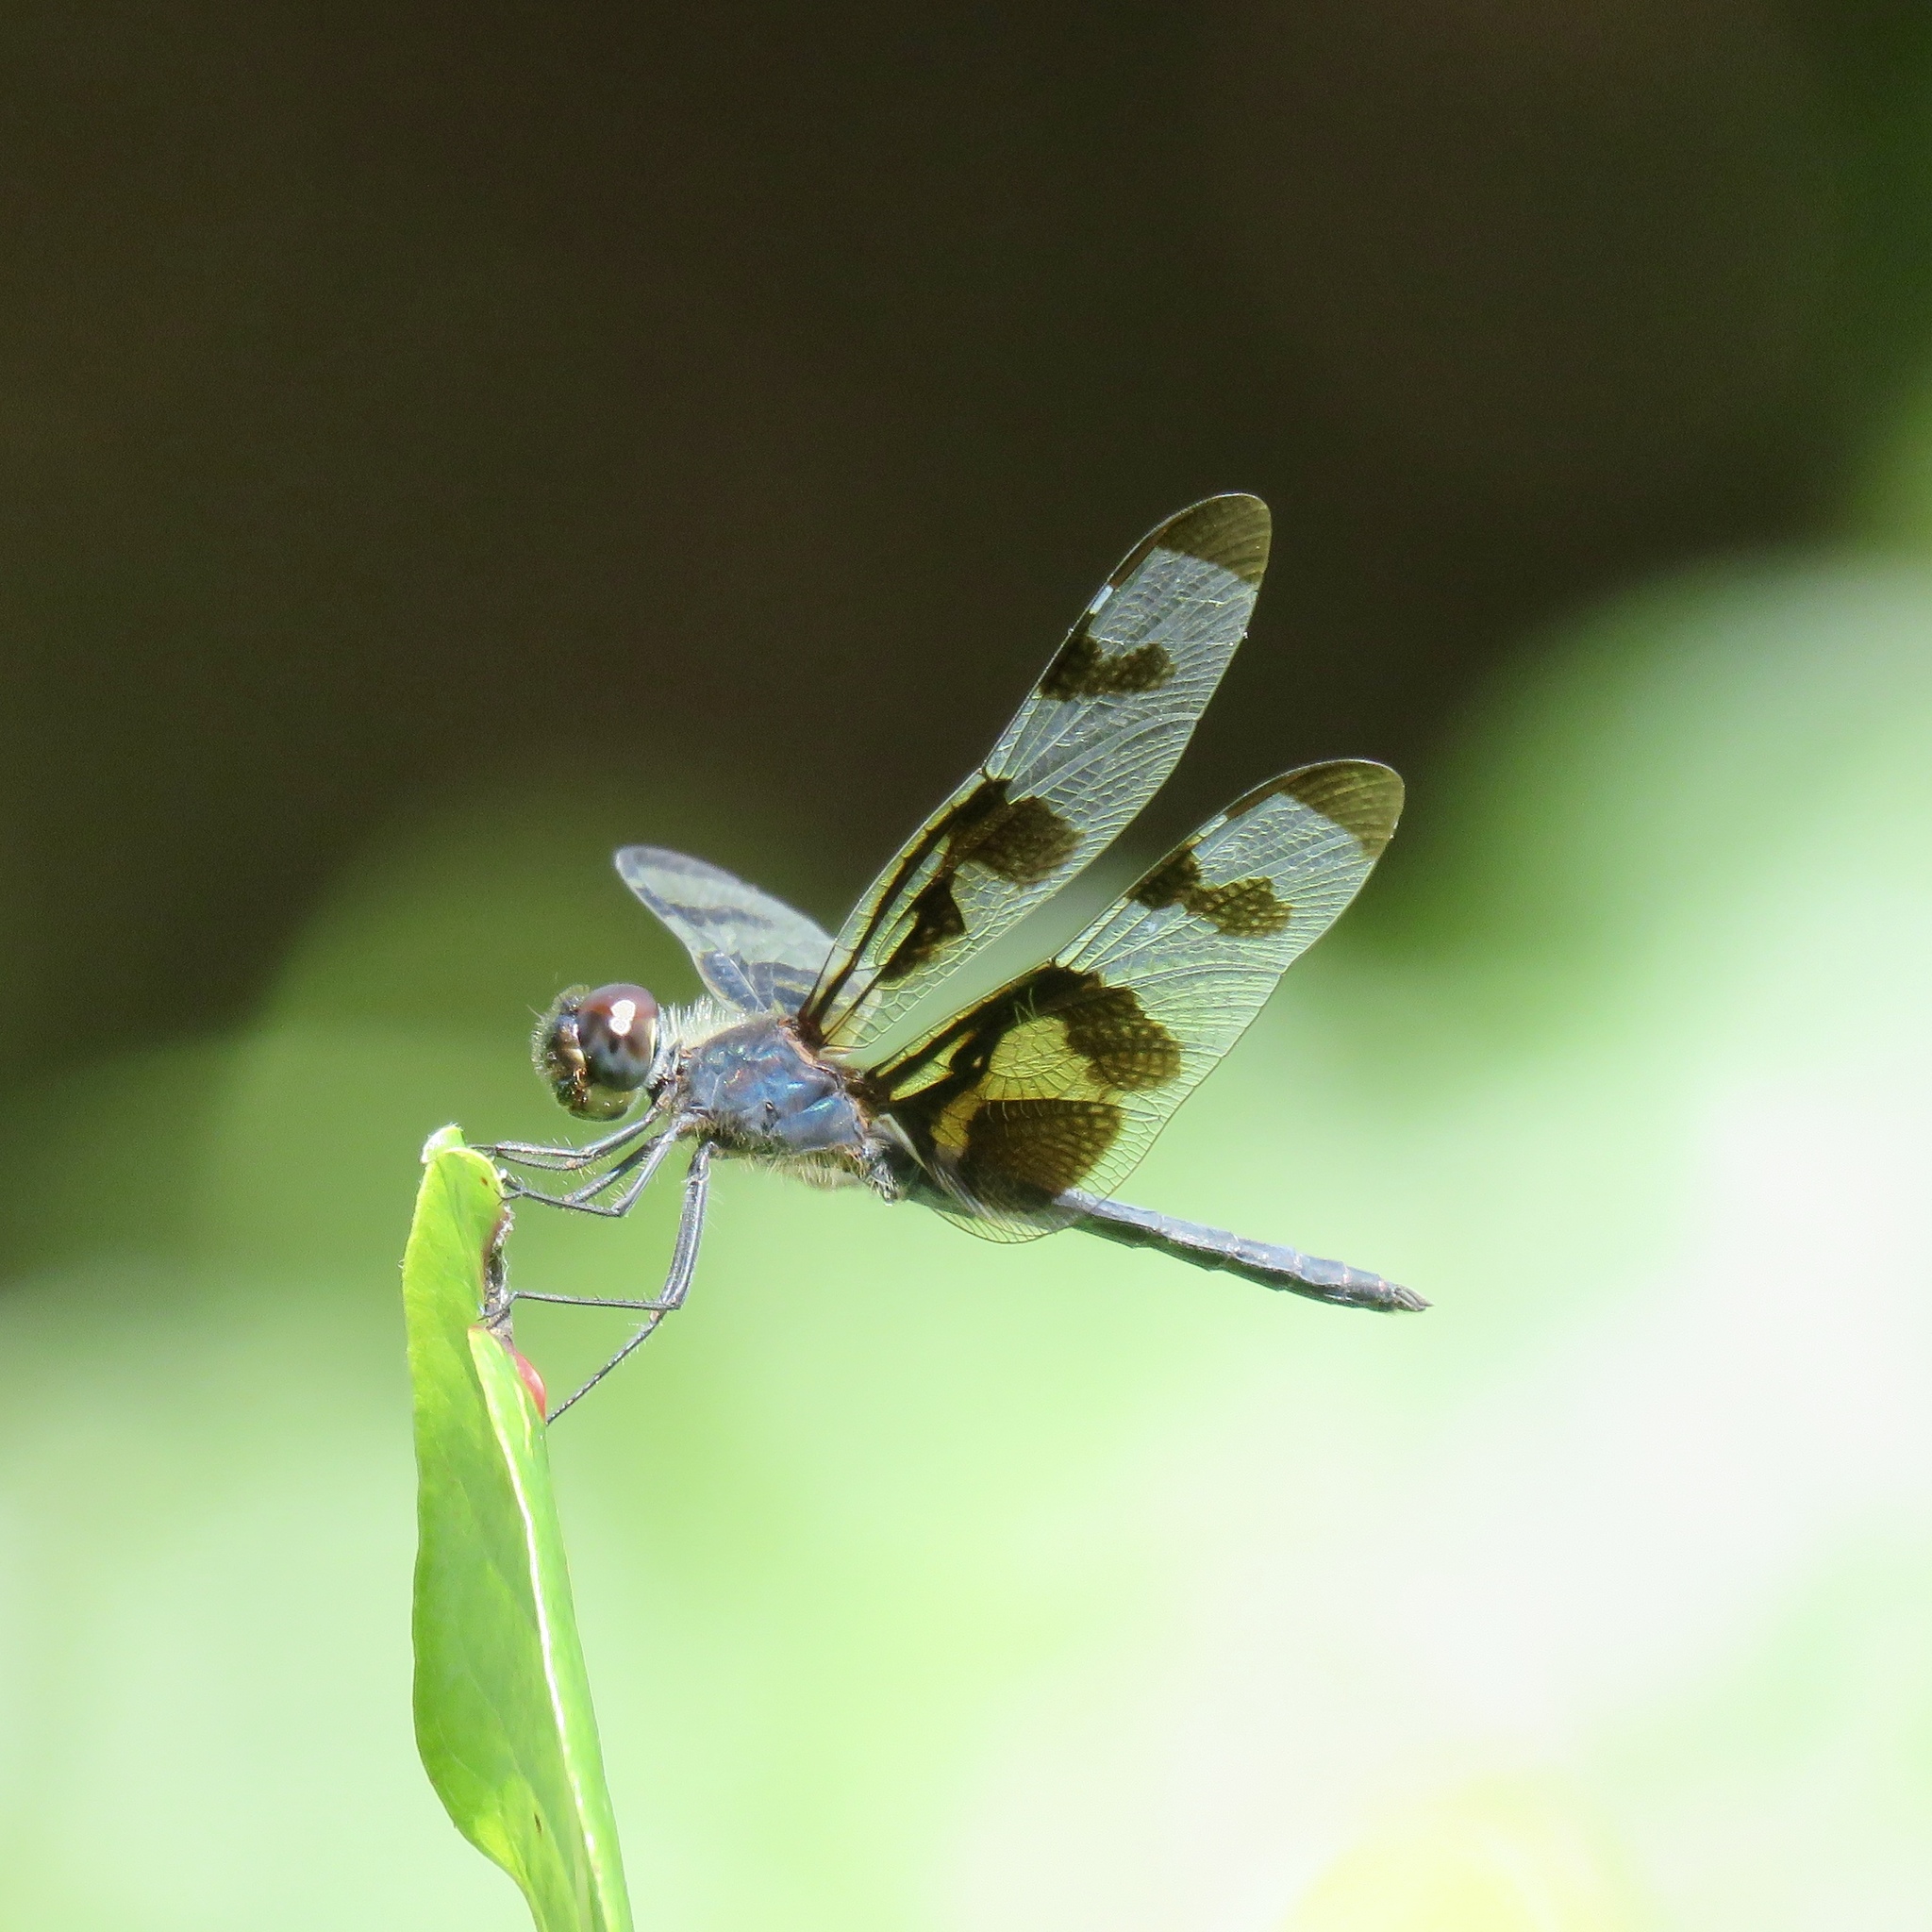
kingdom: Animalia
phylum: Arthropoda
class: Insecta
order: Odonata
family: Libellulidae
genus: Celithemis
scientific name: Celithemis fasciata
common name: Banded pennant
